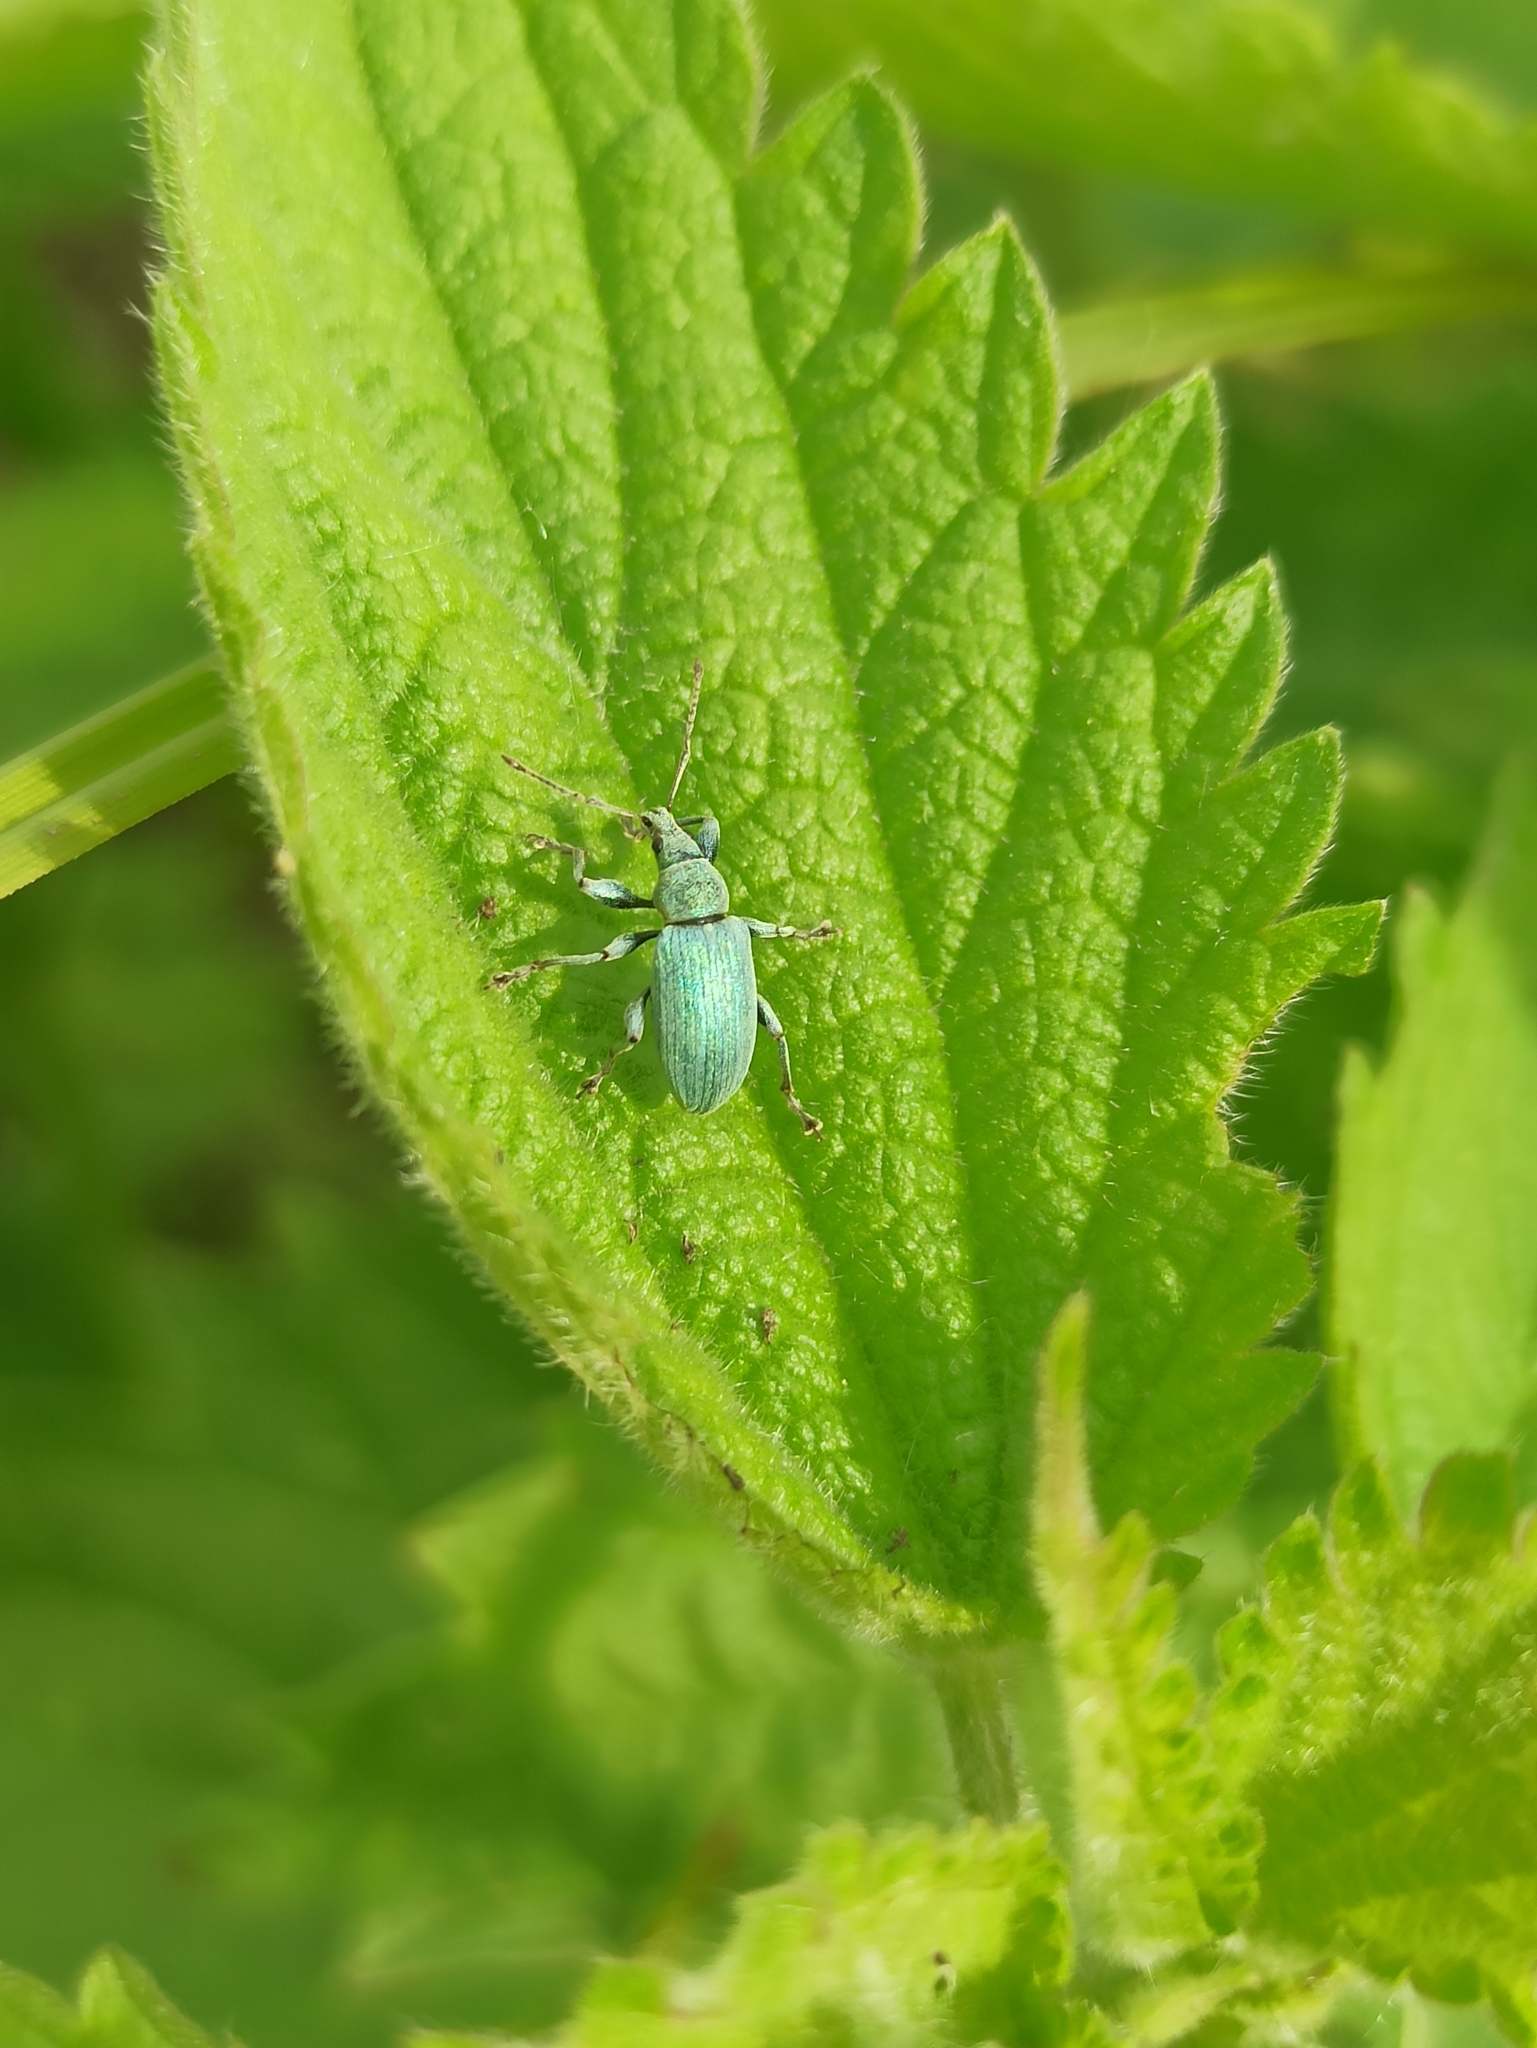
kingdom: Animalia
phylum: Arthropoda
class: Insecta
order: Coleoptera
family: Curculionidae
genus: Phyllobius
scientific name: Phyllobius pomaceus
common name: Green nettle weevil
